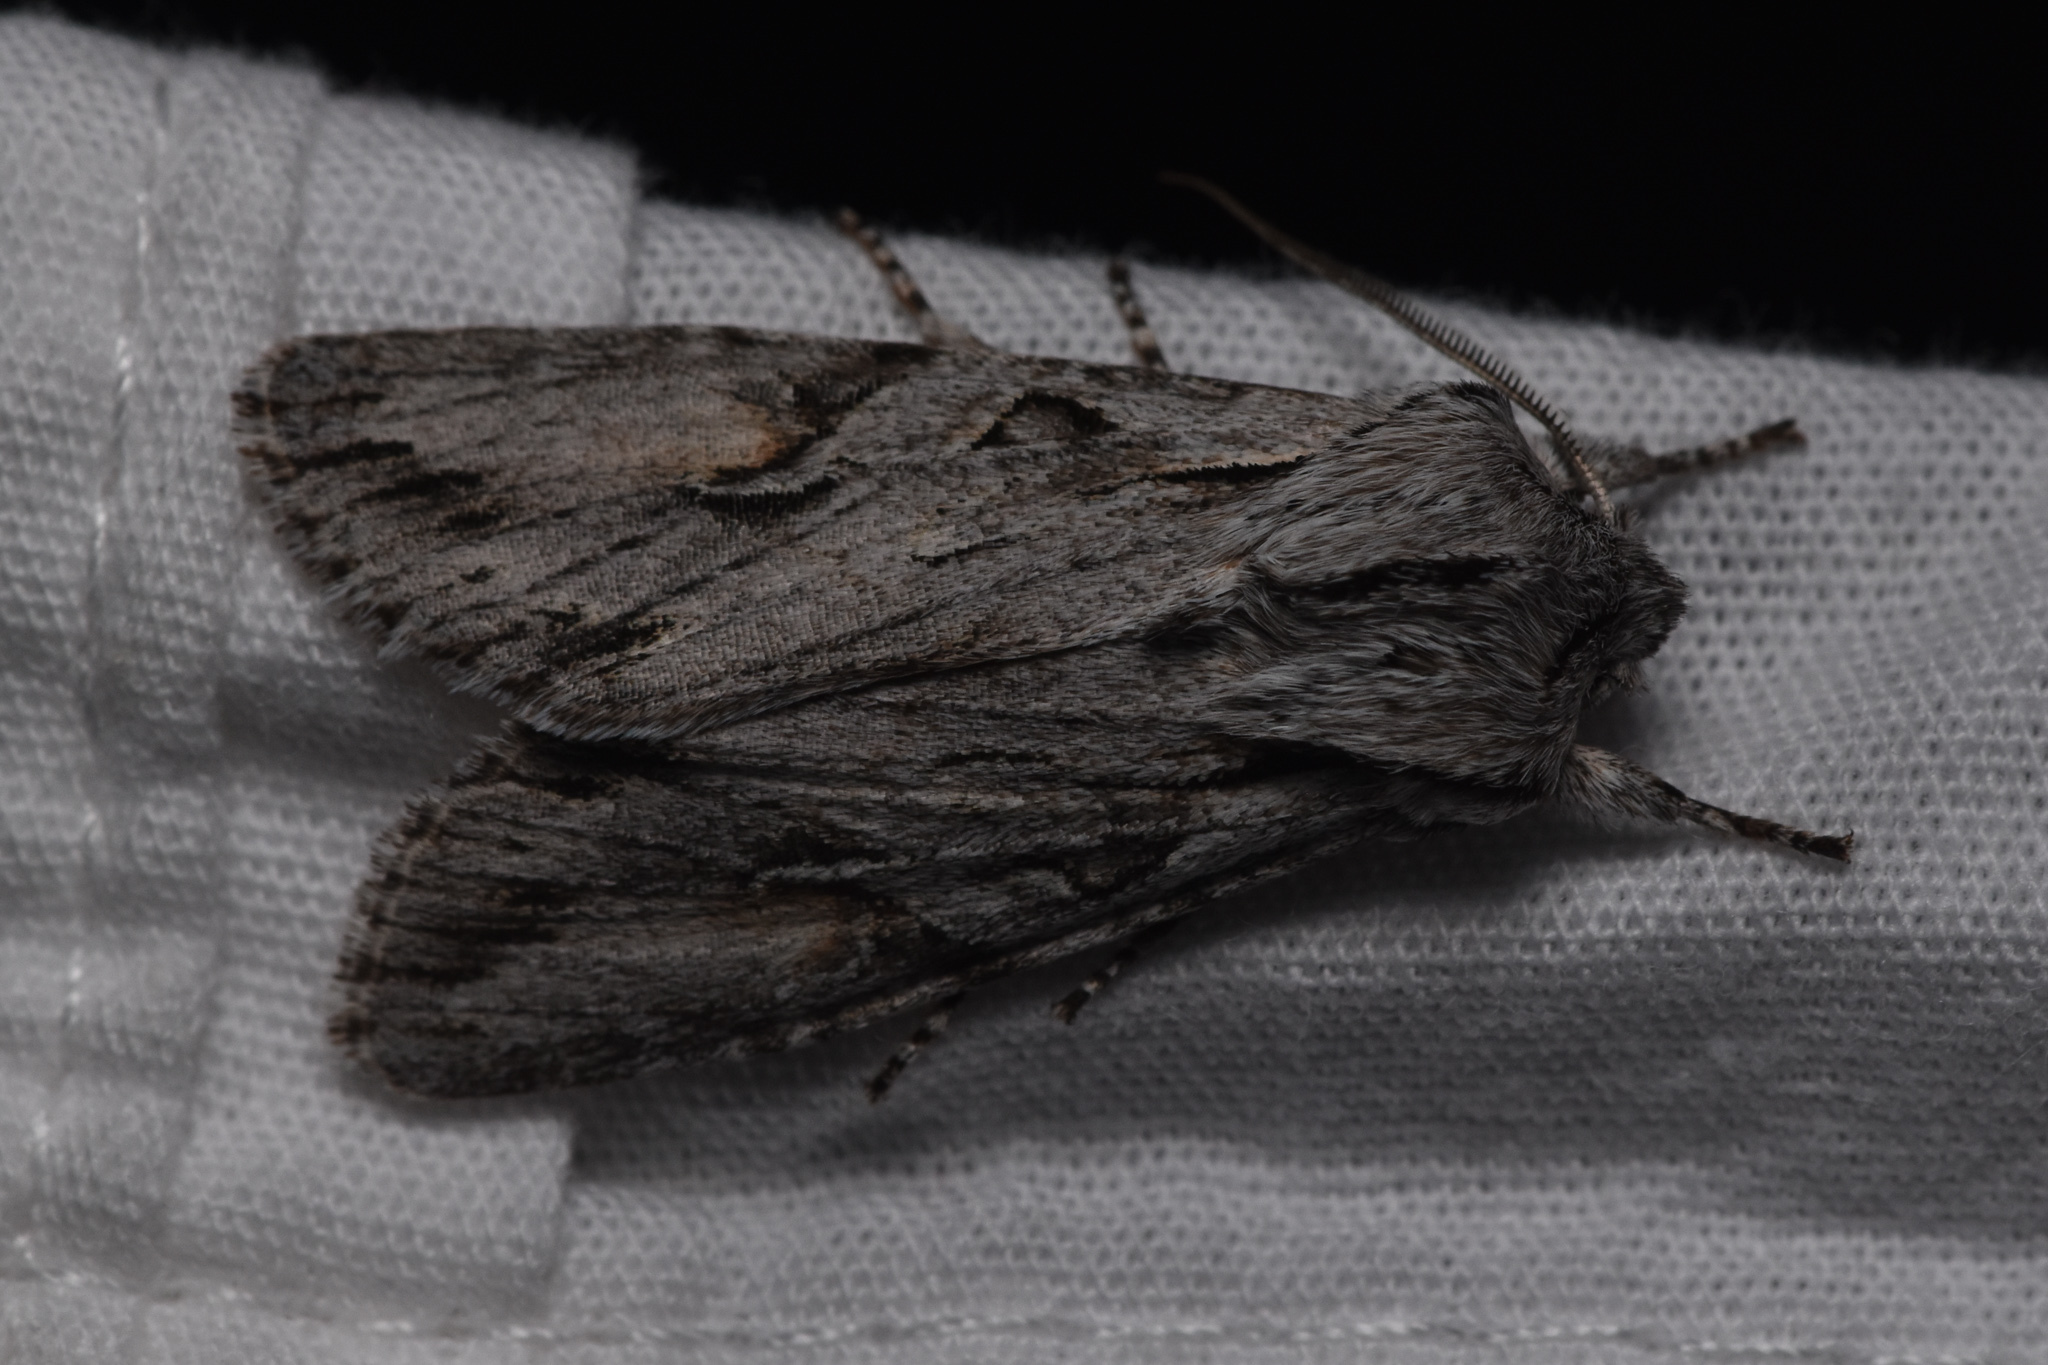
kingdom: Animalia
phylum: Arthropoda
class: Insecta
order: Lepidoptera
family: Noctuidae
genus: Egira
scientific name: Egira crucialis
